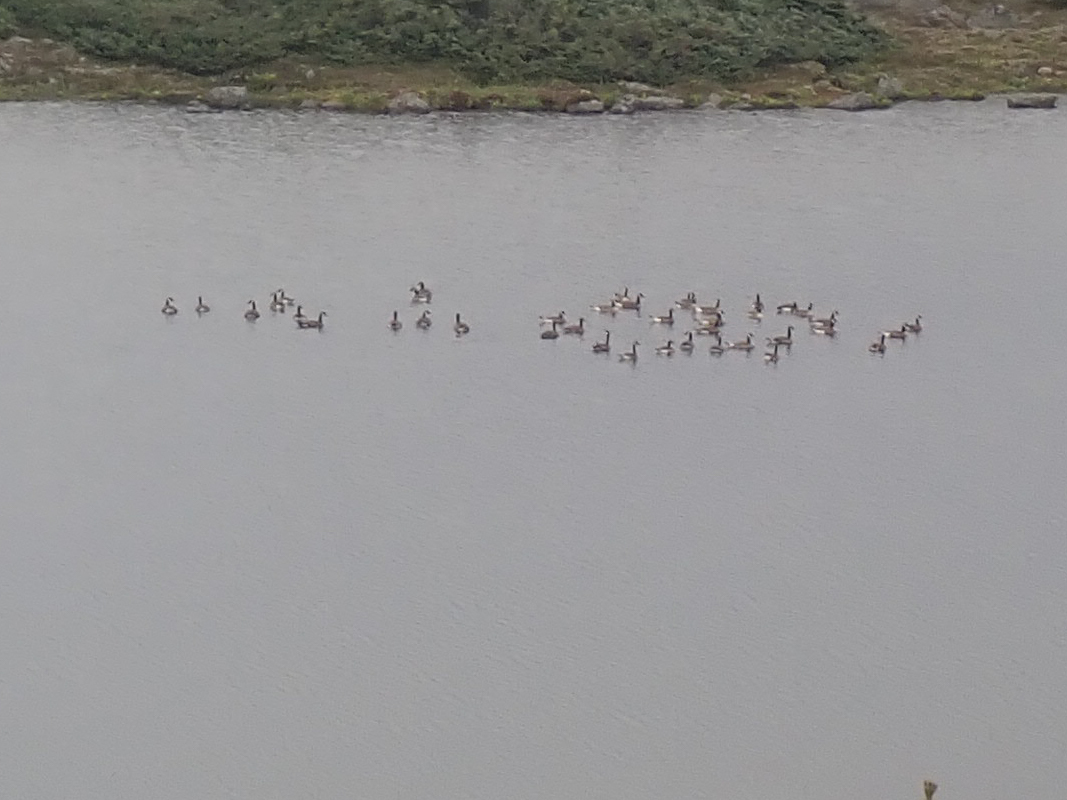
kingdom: Animalia
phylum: Chordata
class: Aves
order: Anseriformes
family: Anatidae
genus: Branta
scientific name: Branta canadensis
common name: Canada goose
